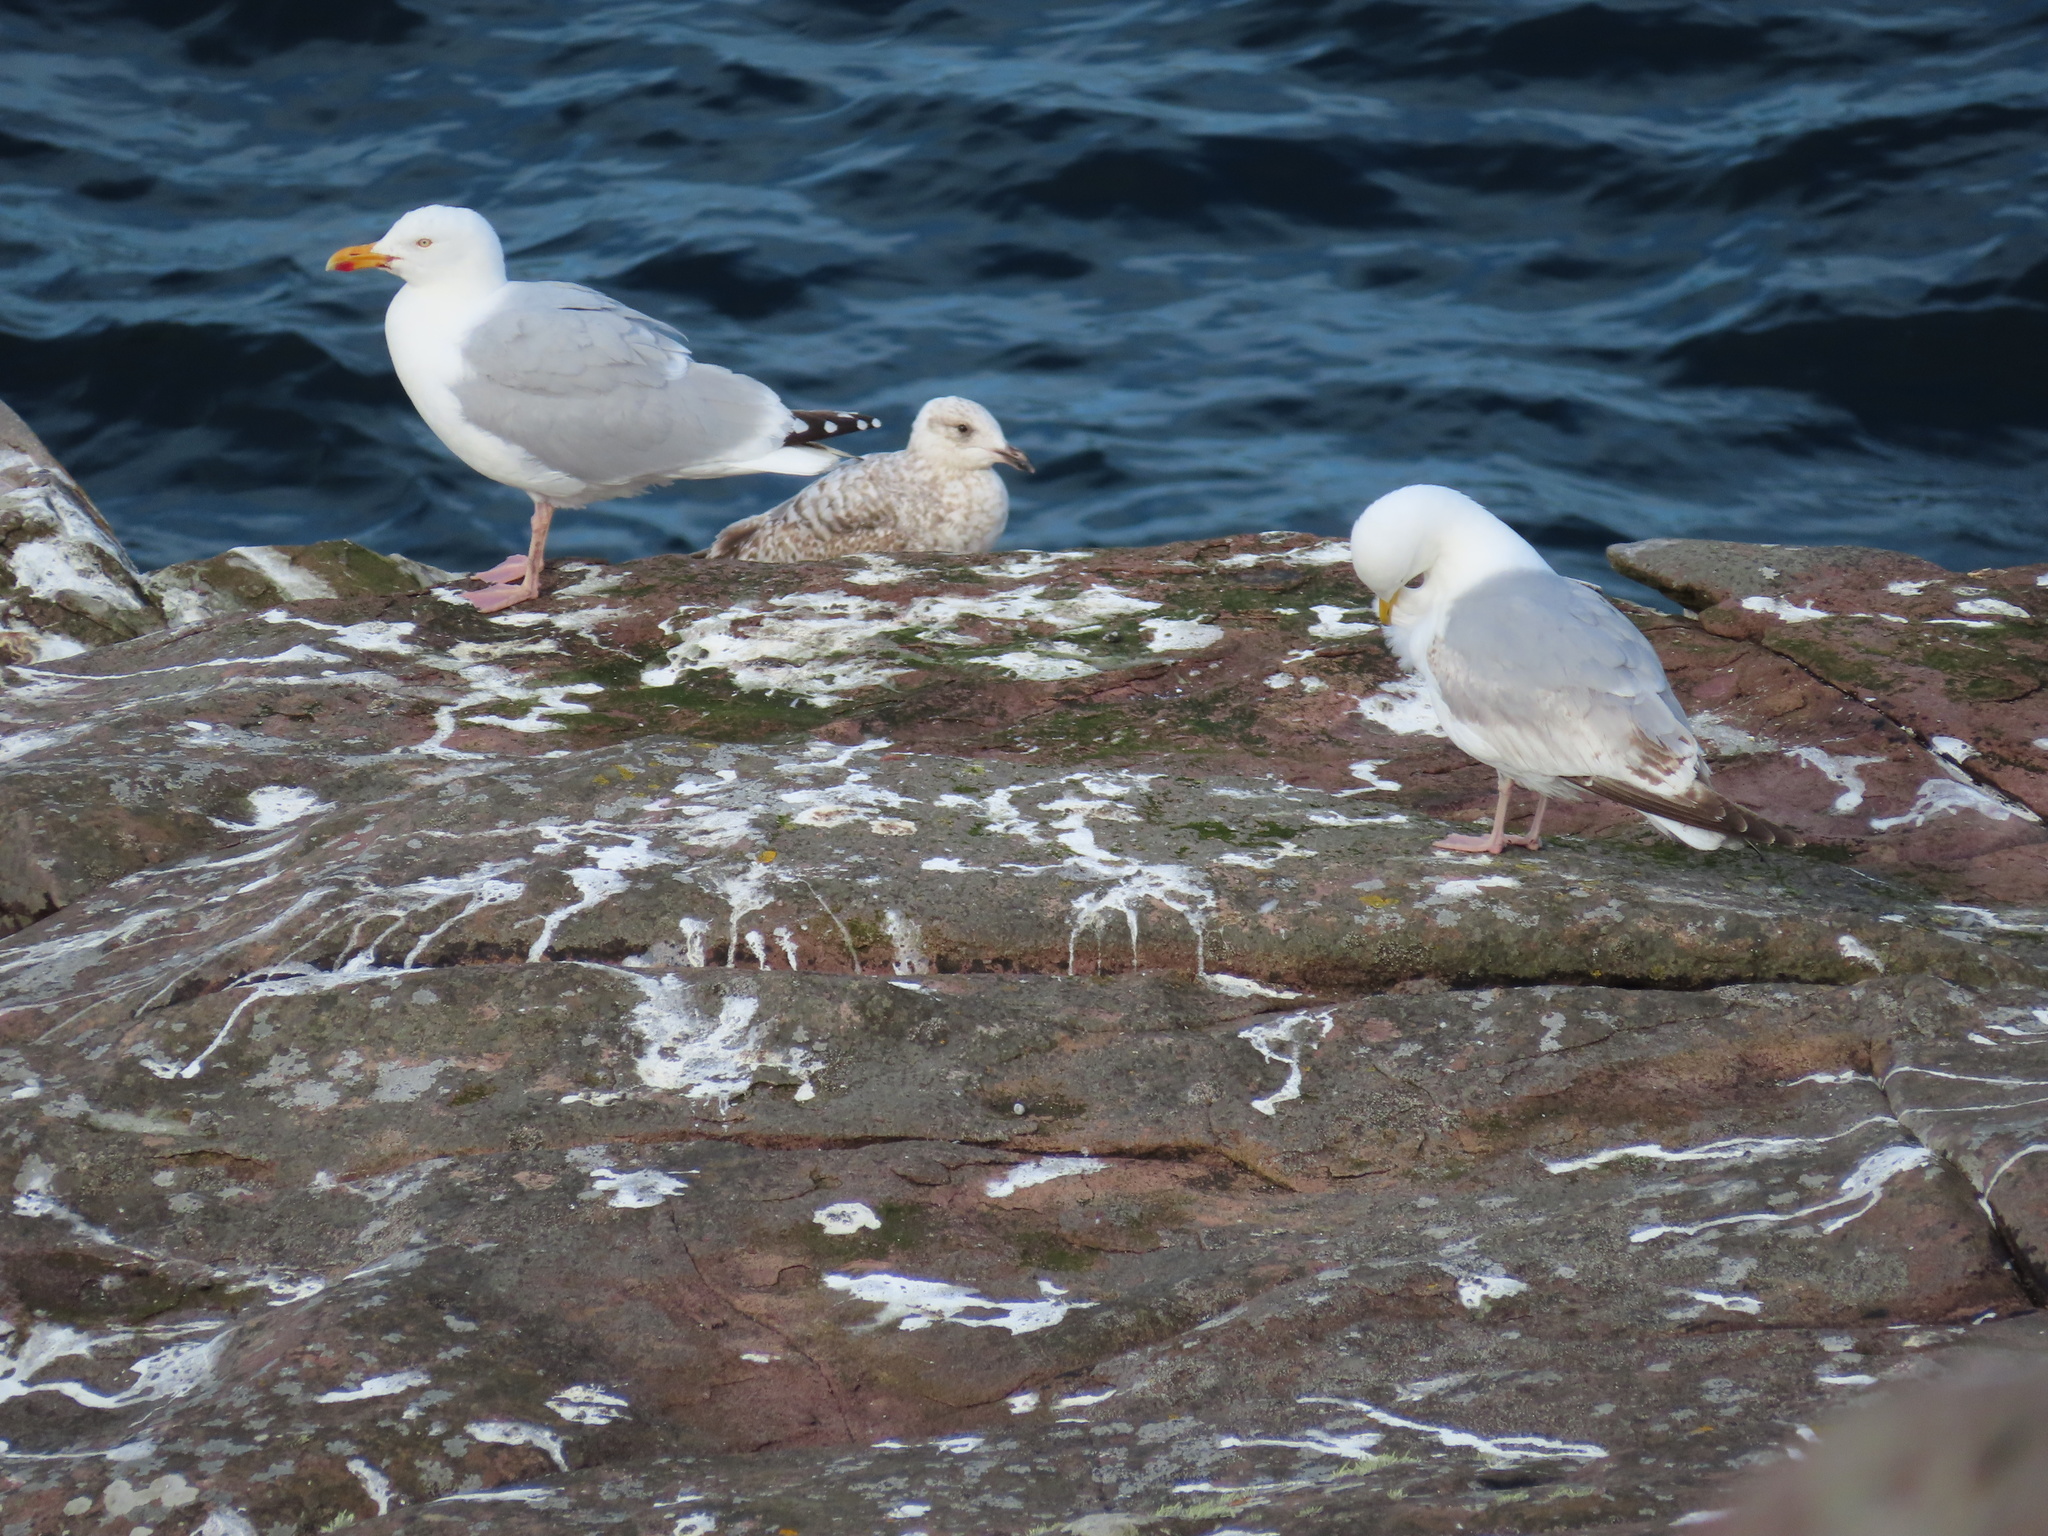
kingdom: Animalia
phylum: Chordata
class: Aves
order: Charadriiformes
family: Laridae
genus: Larus
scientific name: Larus argentatus
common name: Herring gull
